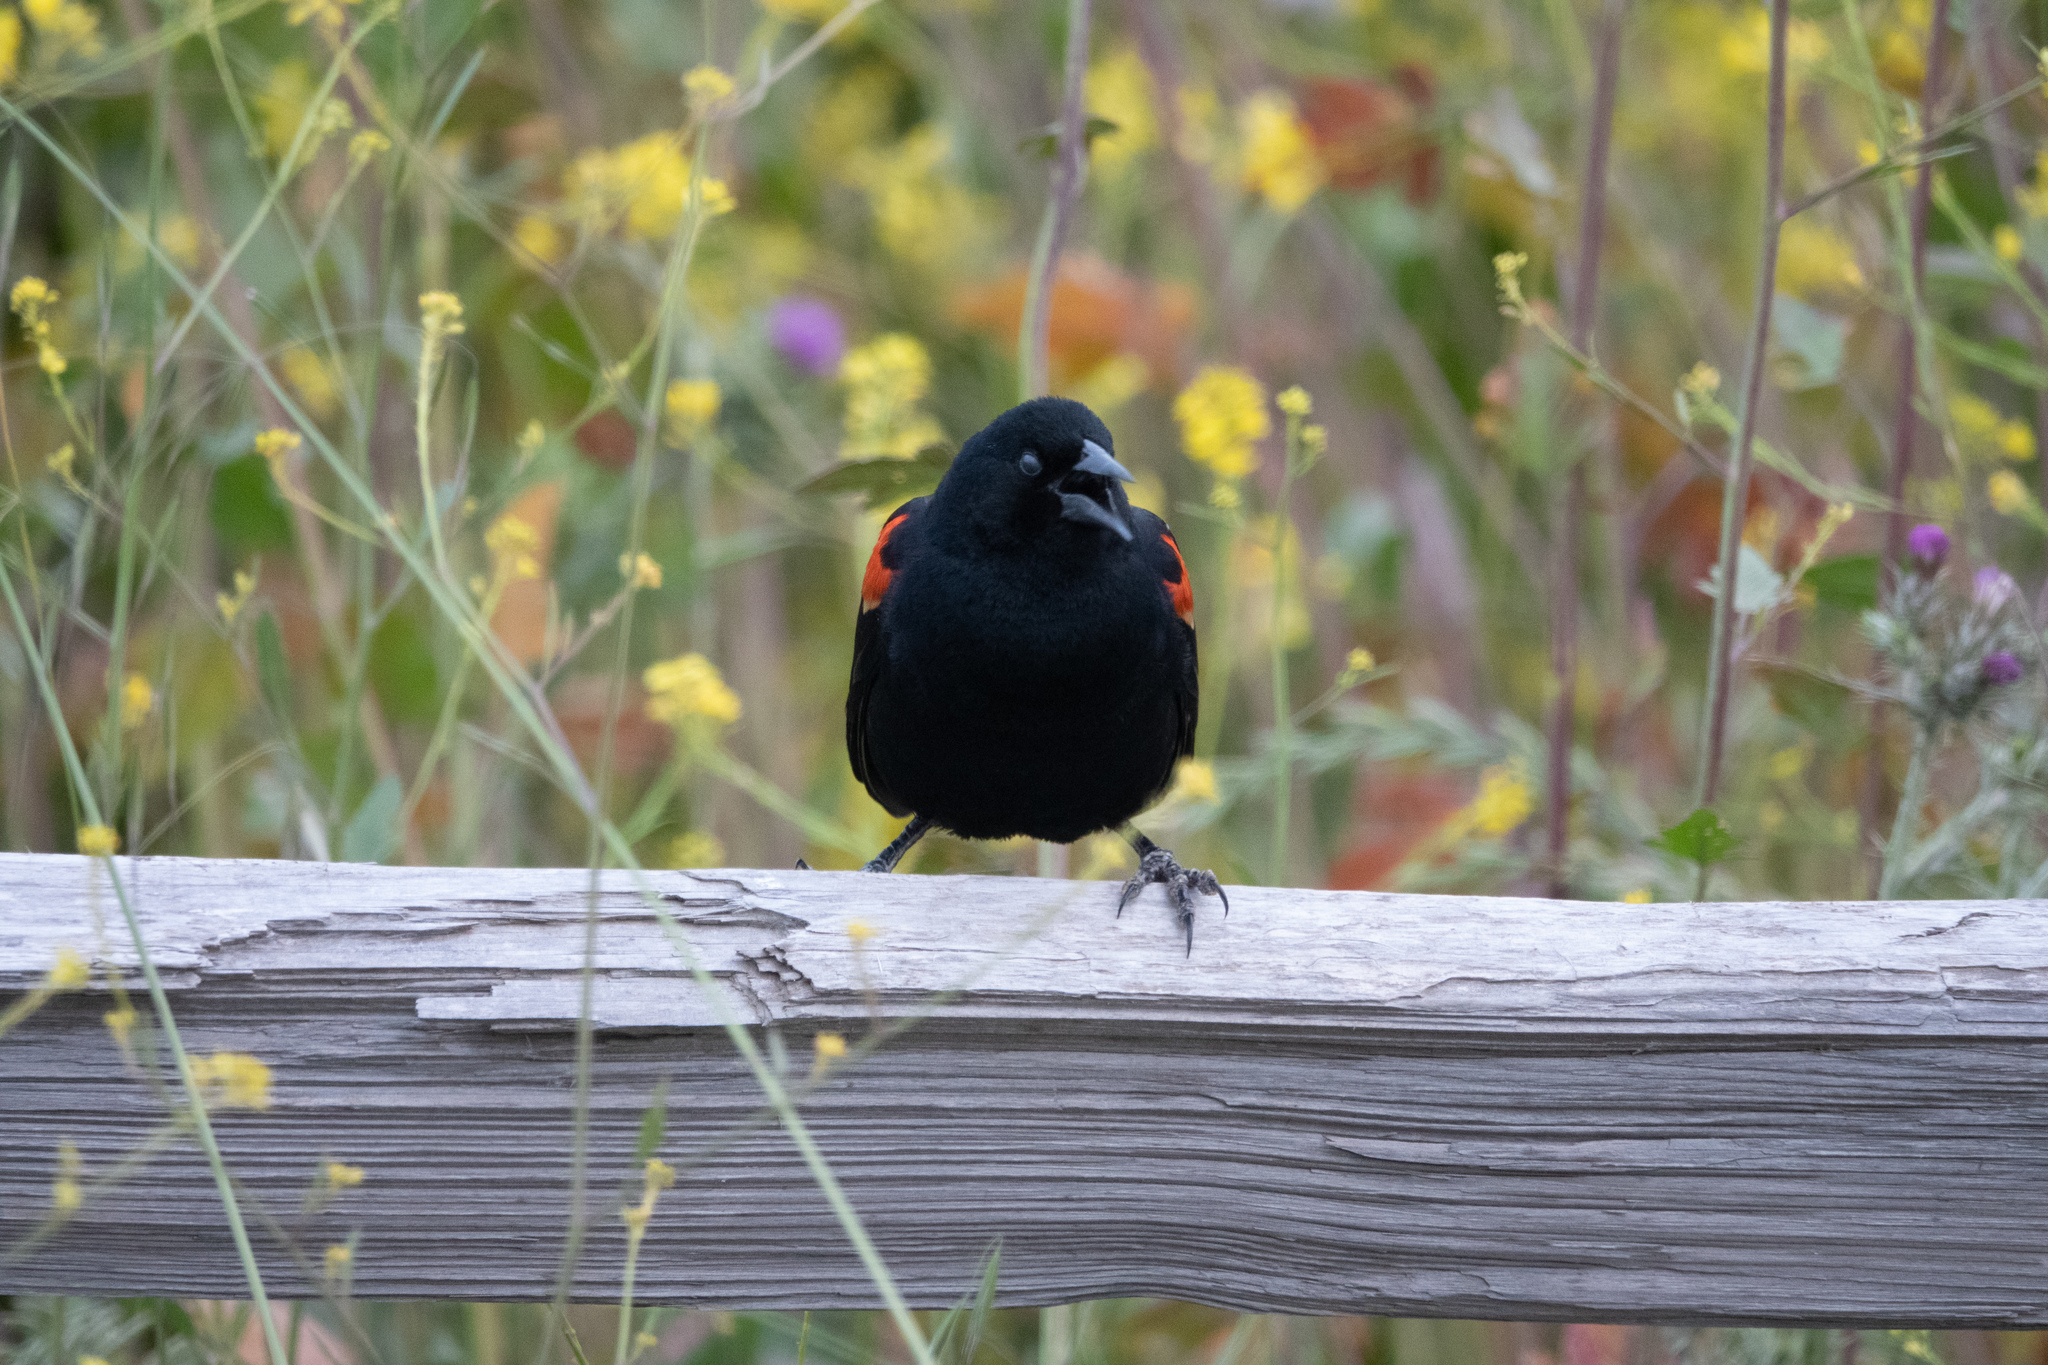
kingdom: Animalia
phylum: Chordata
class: Aves
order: Passeriformes
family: Icteridae
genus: Agelaius
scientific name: Agelaius phoeniceus
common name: Red-winged blackbird
